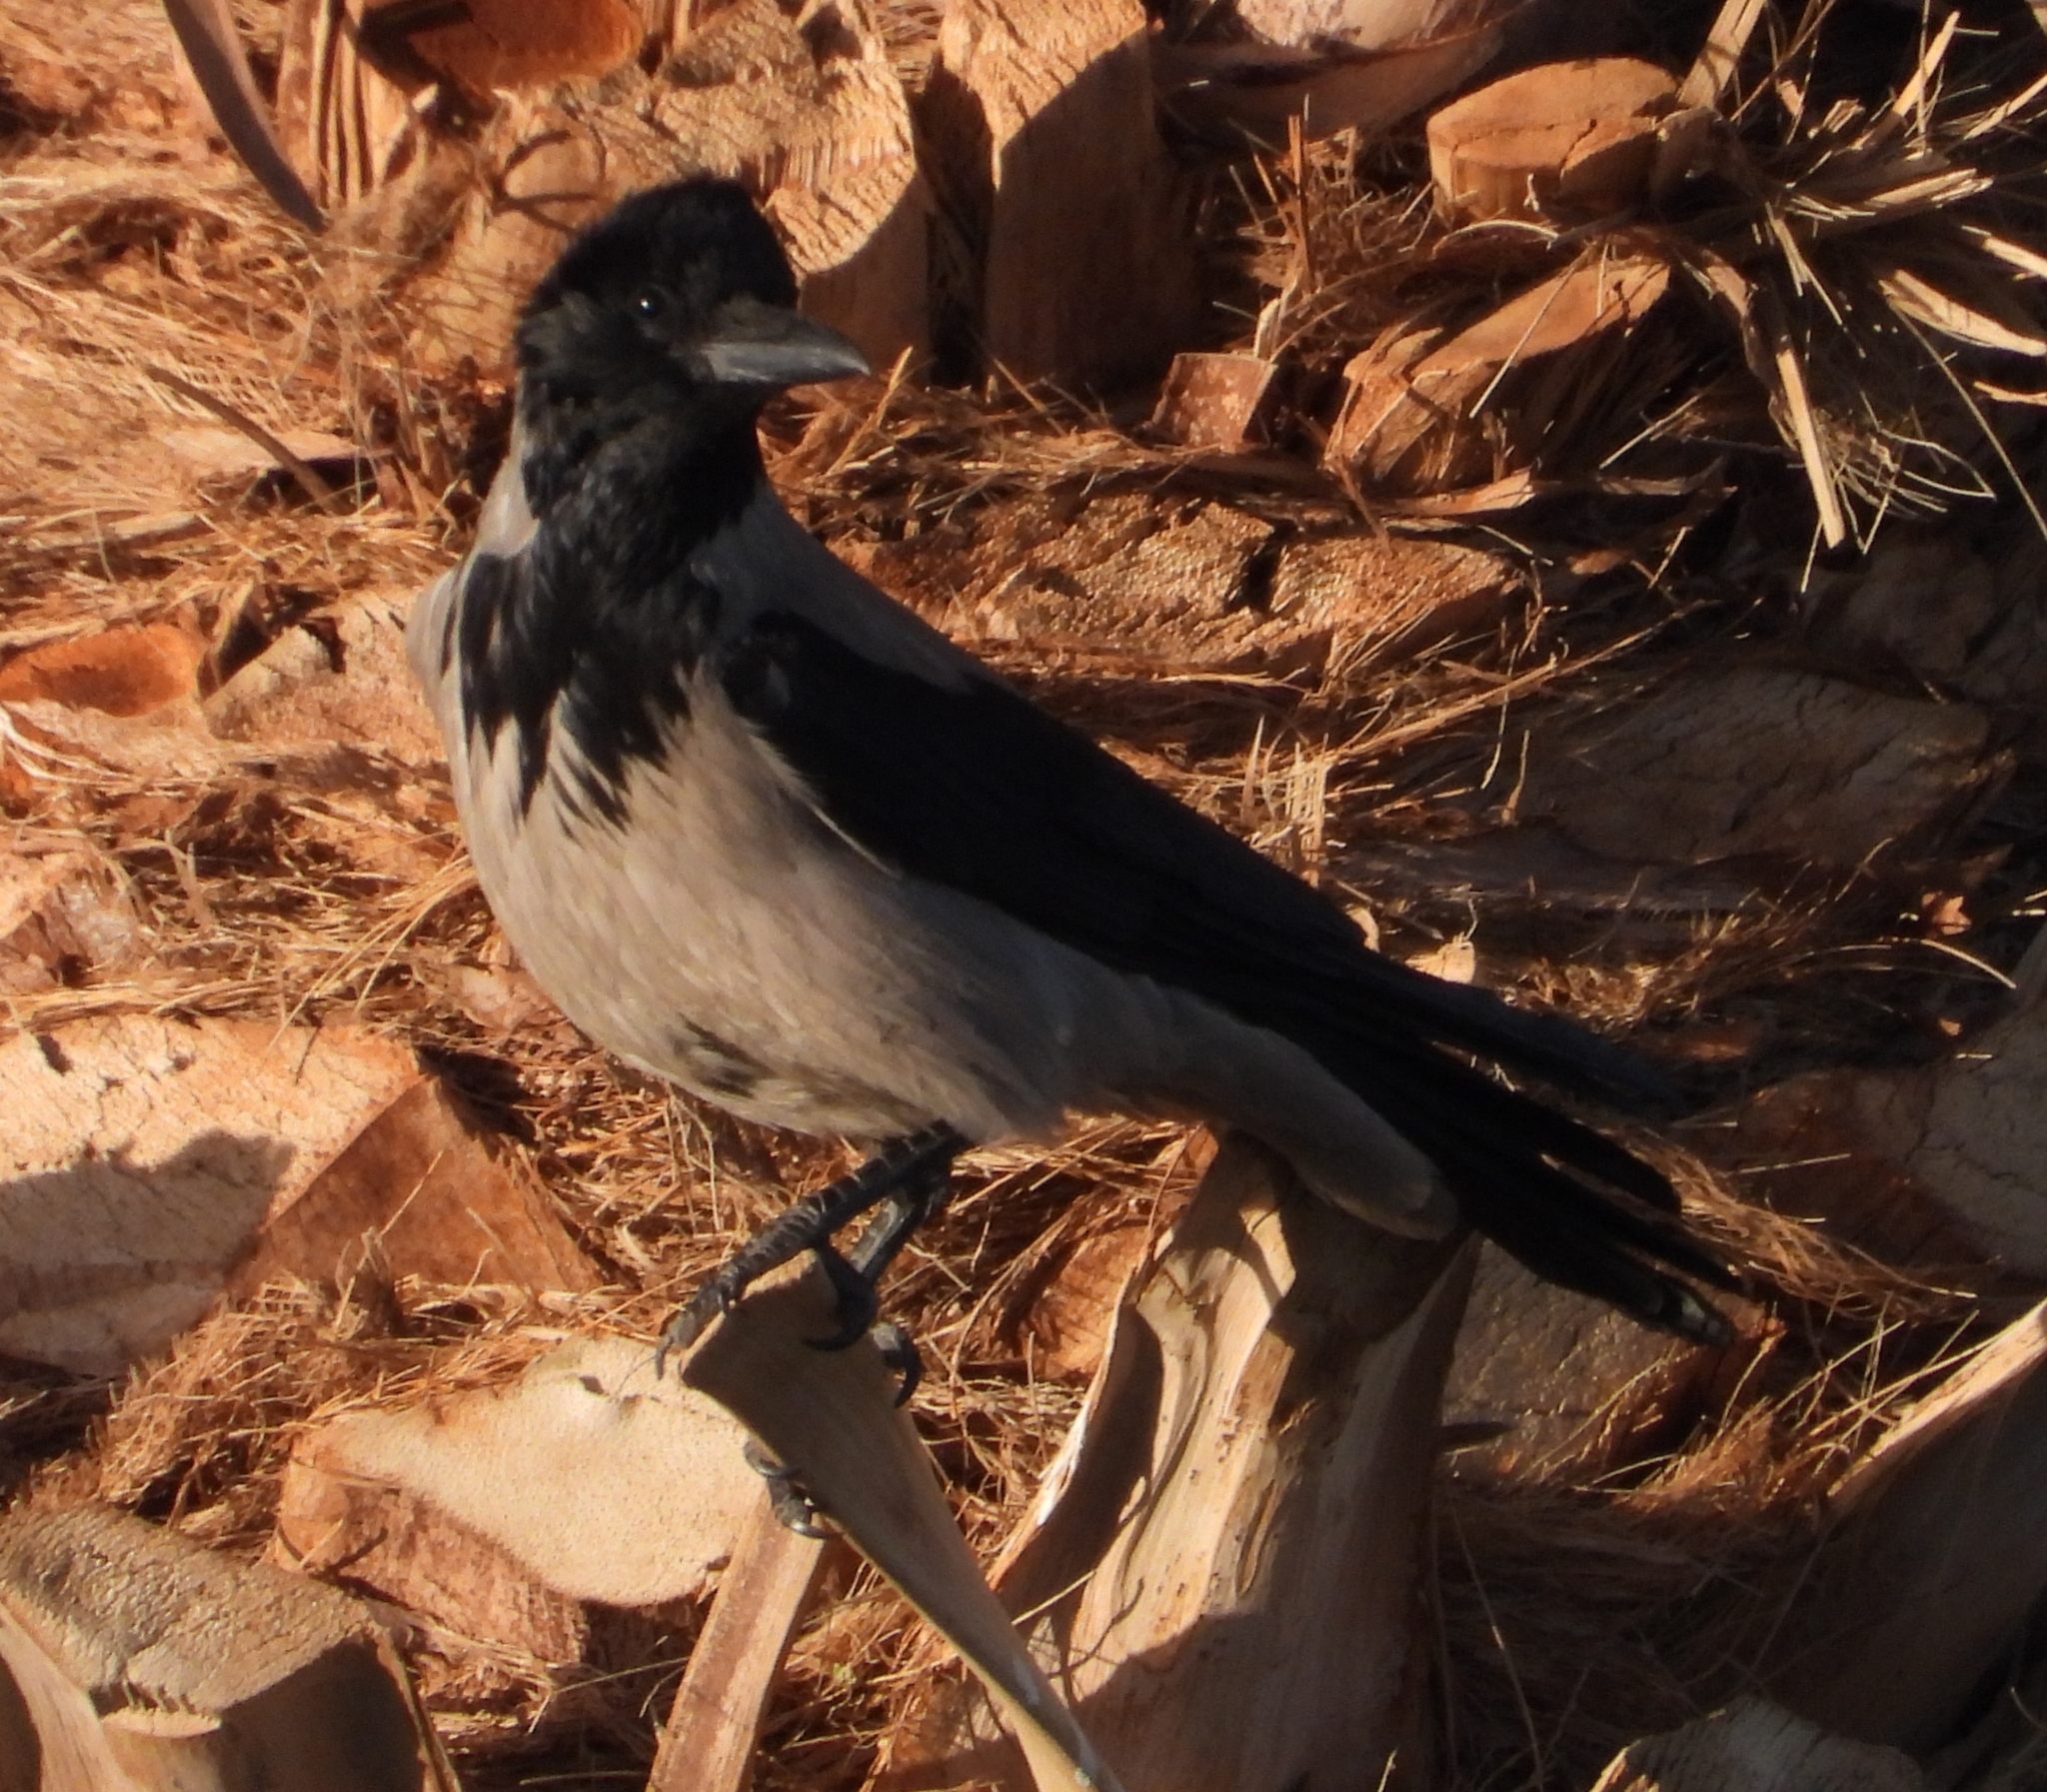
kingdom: Animalia
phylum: Chordata
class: Aves
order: Passeriformes
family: Corvidae
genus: Corvus
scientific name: Corvus cornix
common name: Hooded crow
